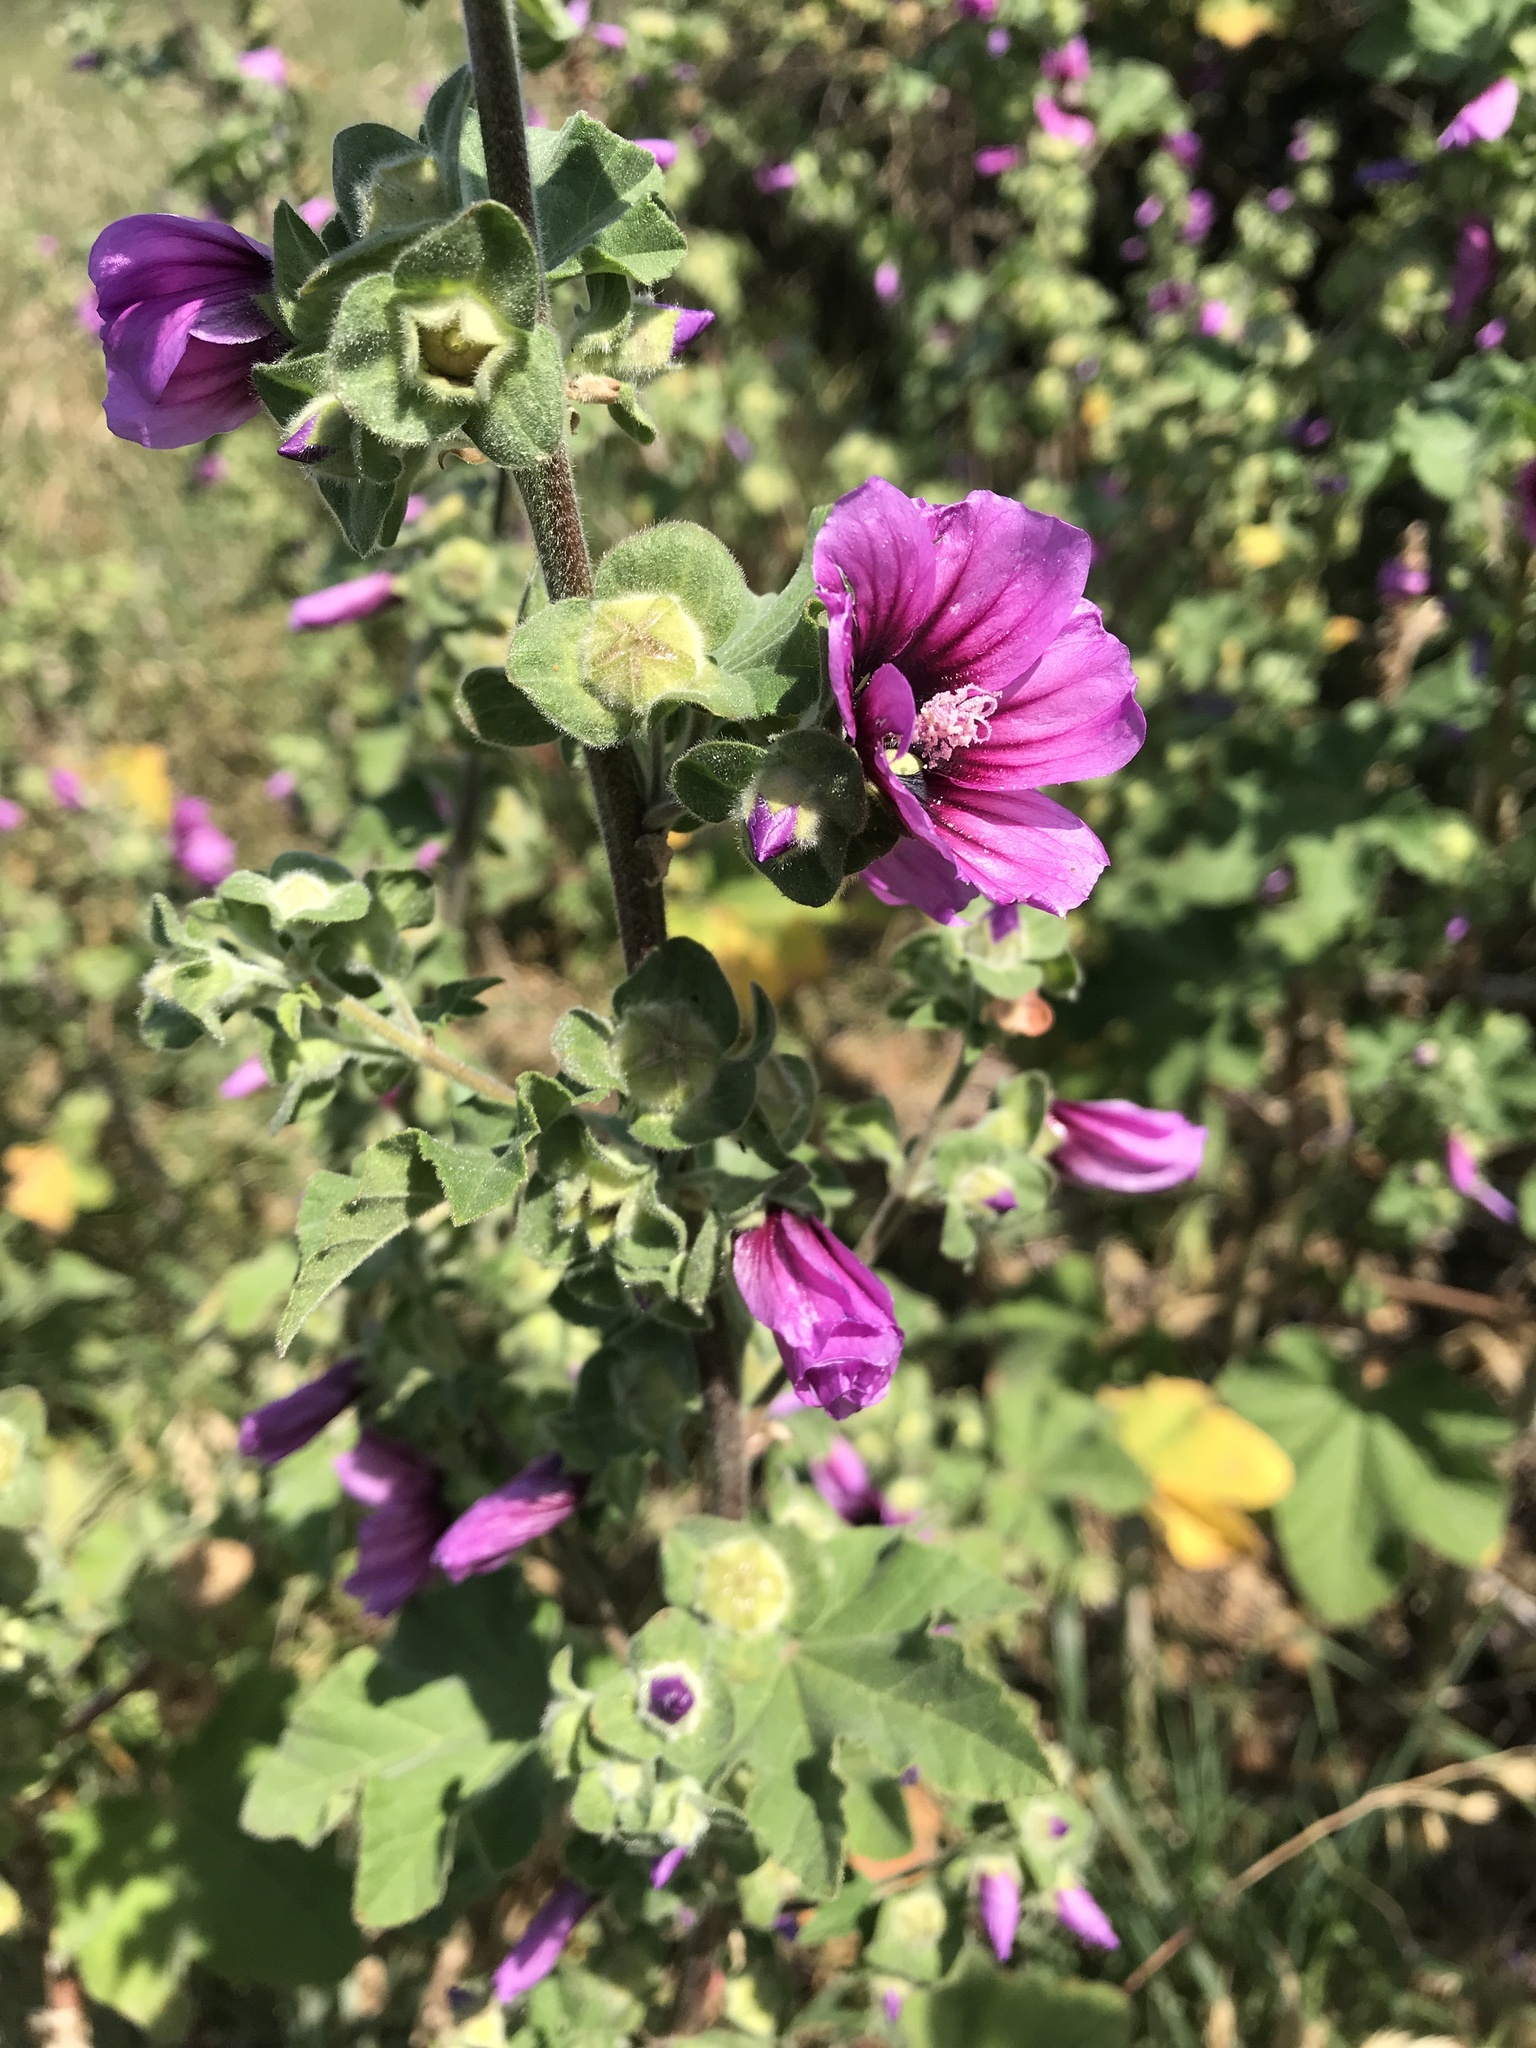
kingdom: Plantae
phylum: Tracheophyta
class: Magnoliopsida
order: Malvales
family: Malvaceae
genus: Malva
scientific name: Malva arborea
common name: Tree mallow
